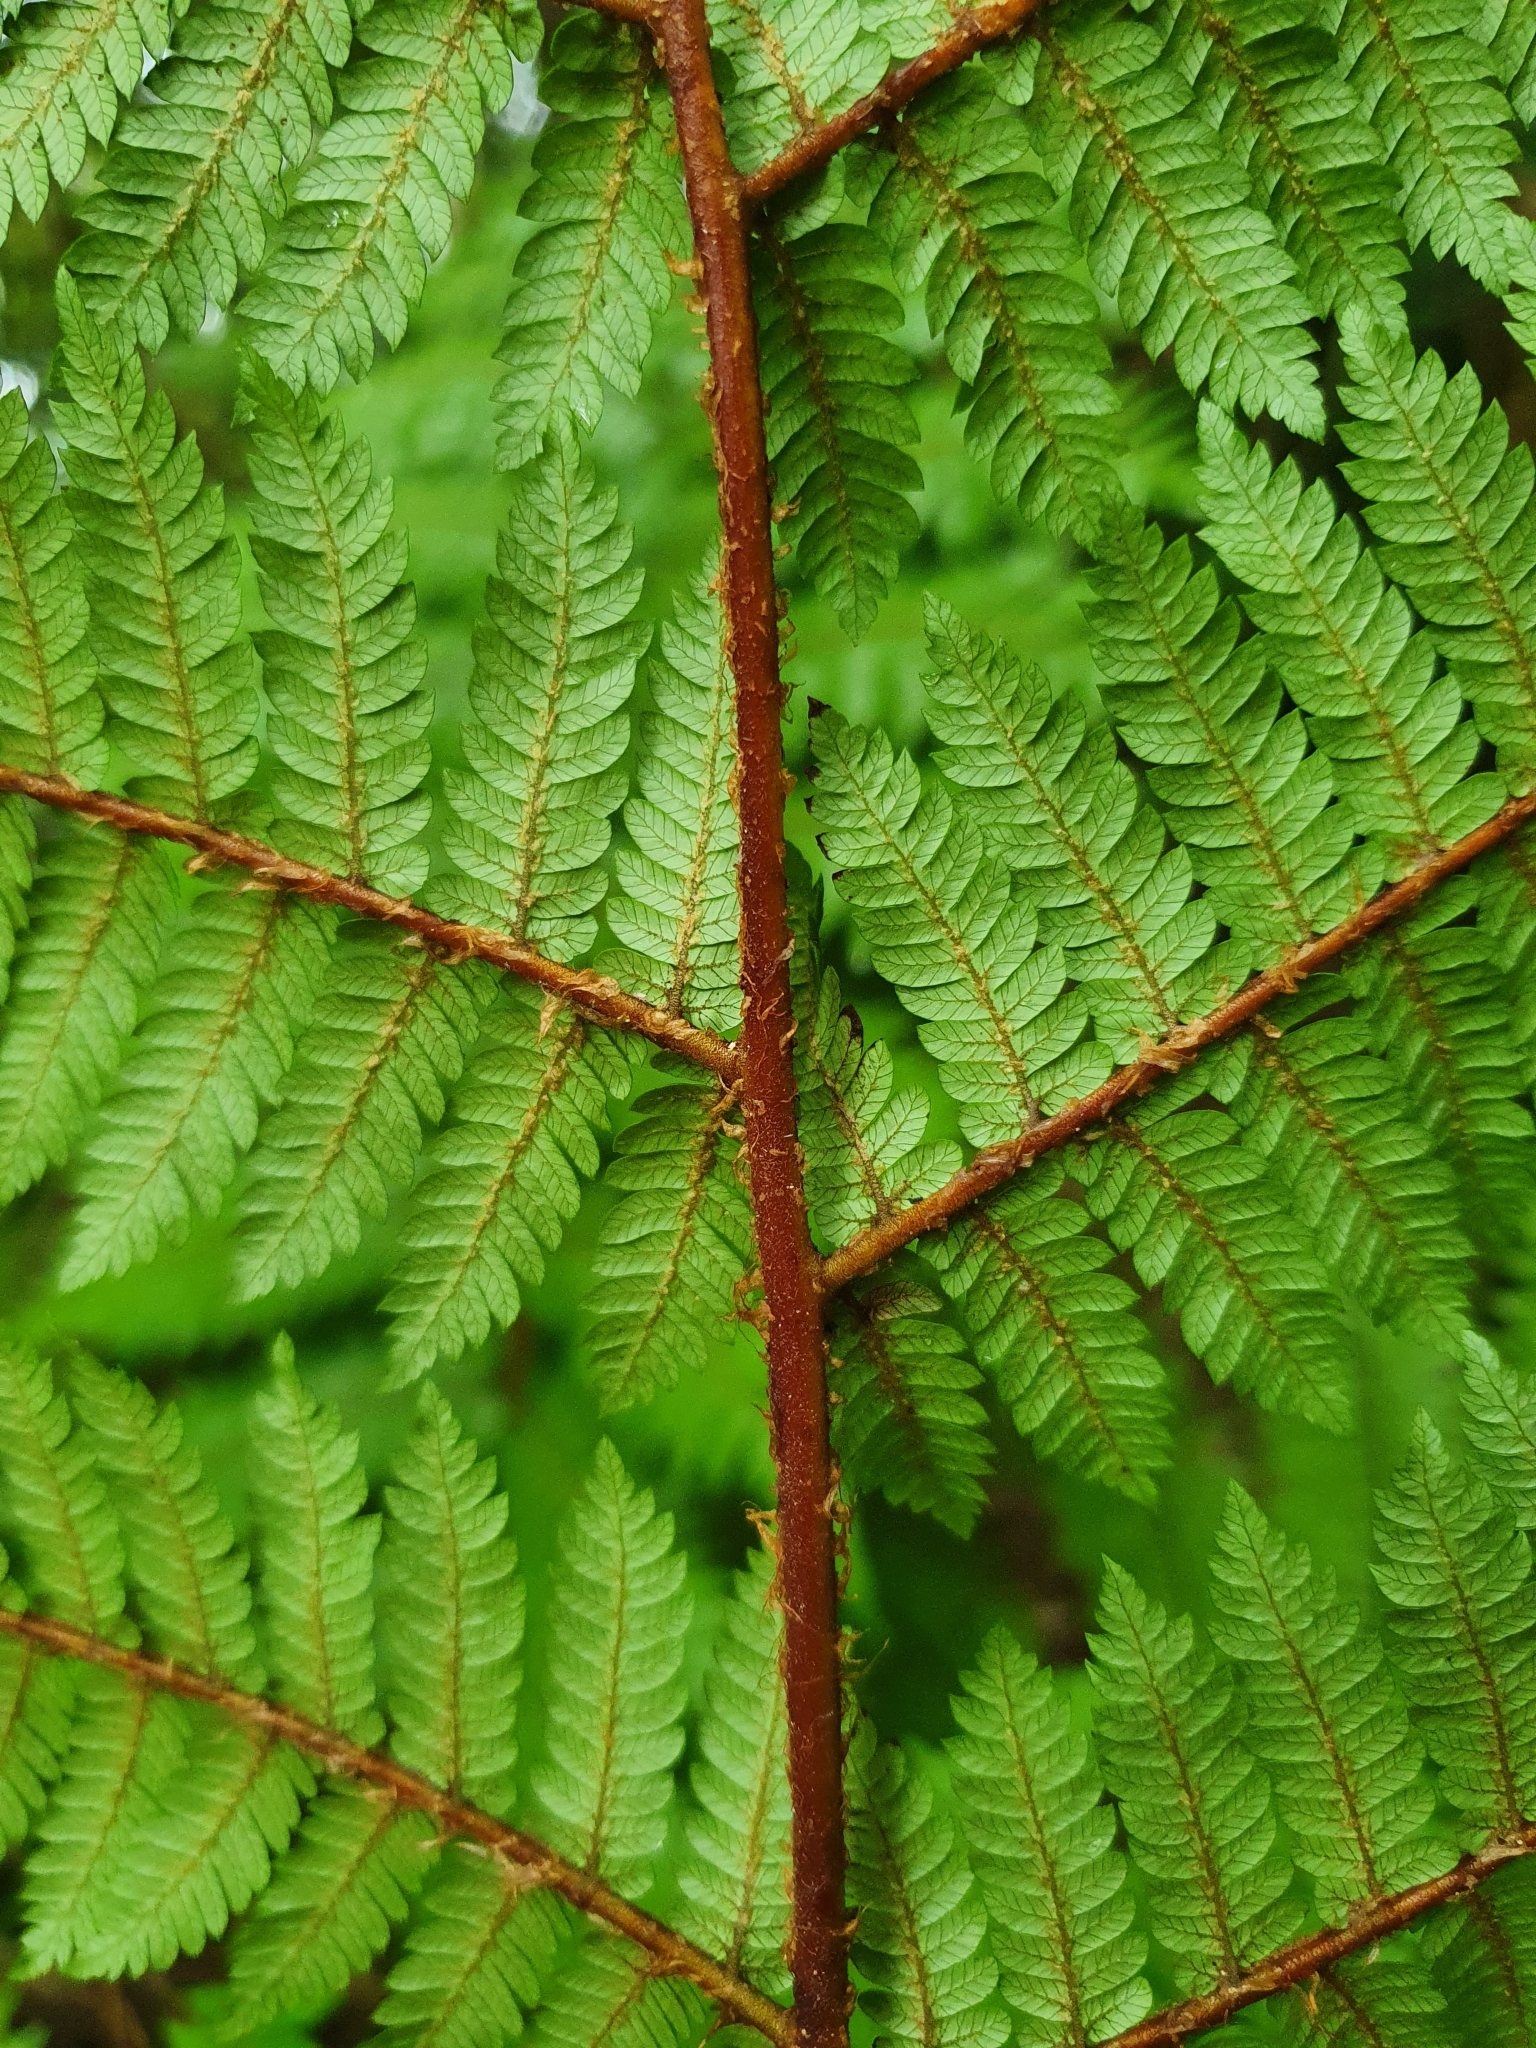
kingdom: Plantae
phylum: Tracheophyta
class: Polypodiopsida
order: Cyatheales
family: Cyatheaceae
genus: Alsophila
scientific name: Alsophila smithii
